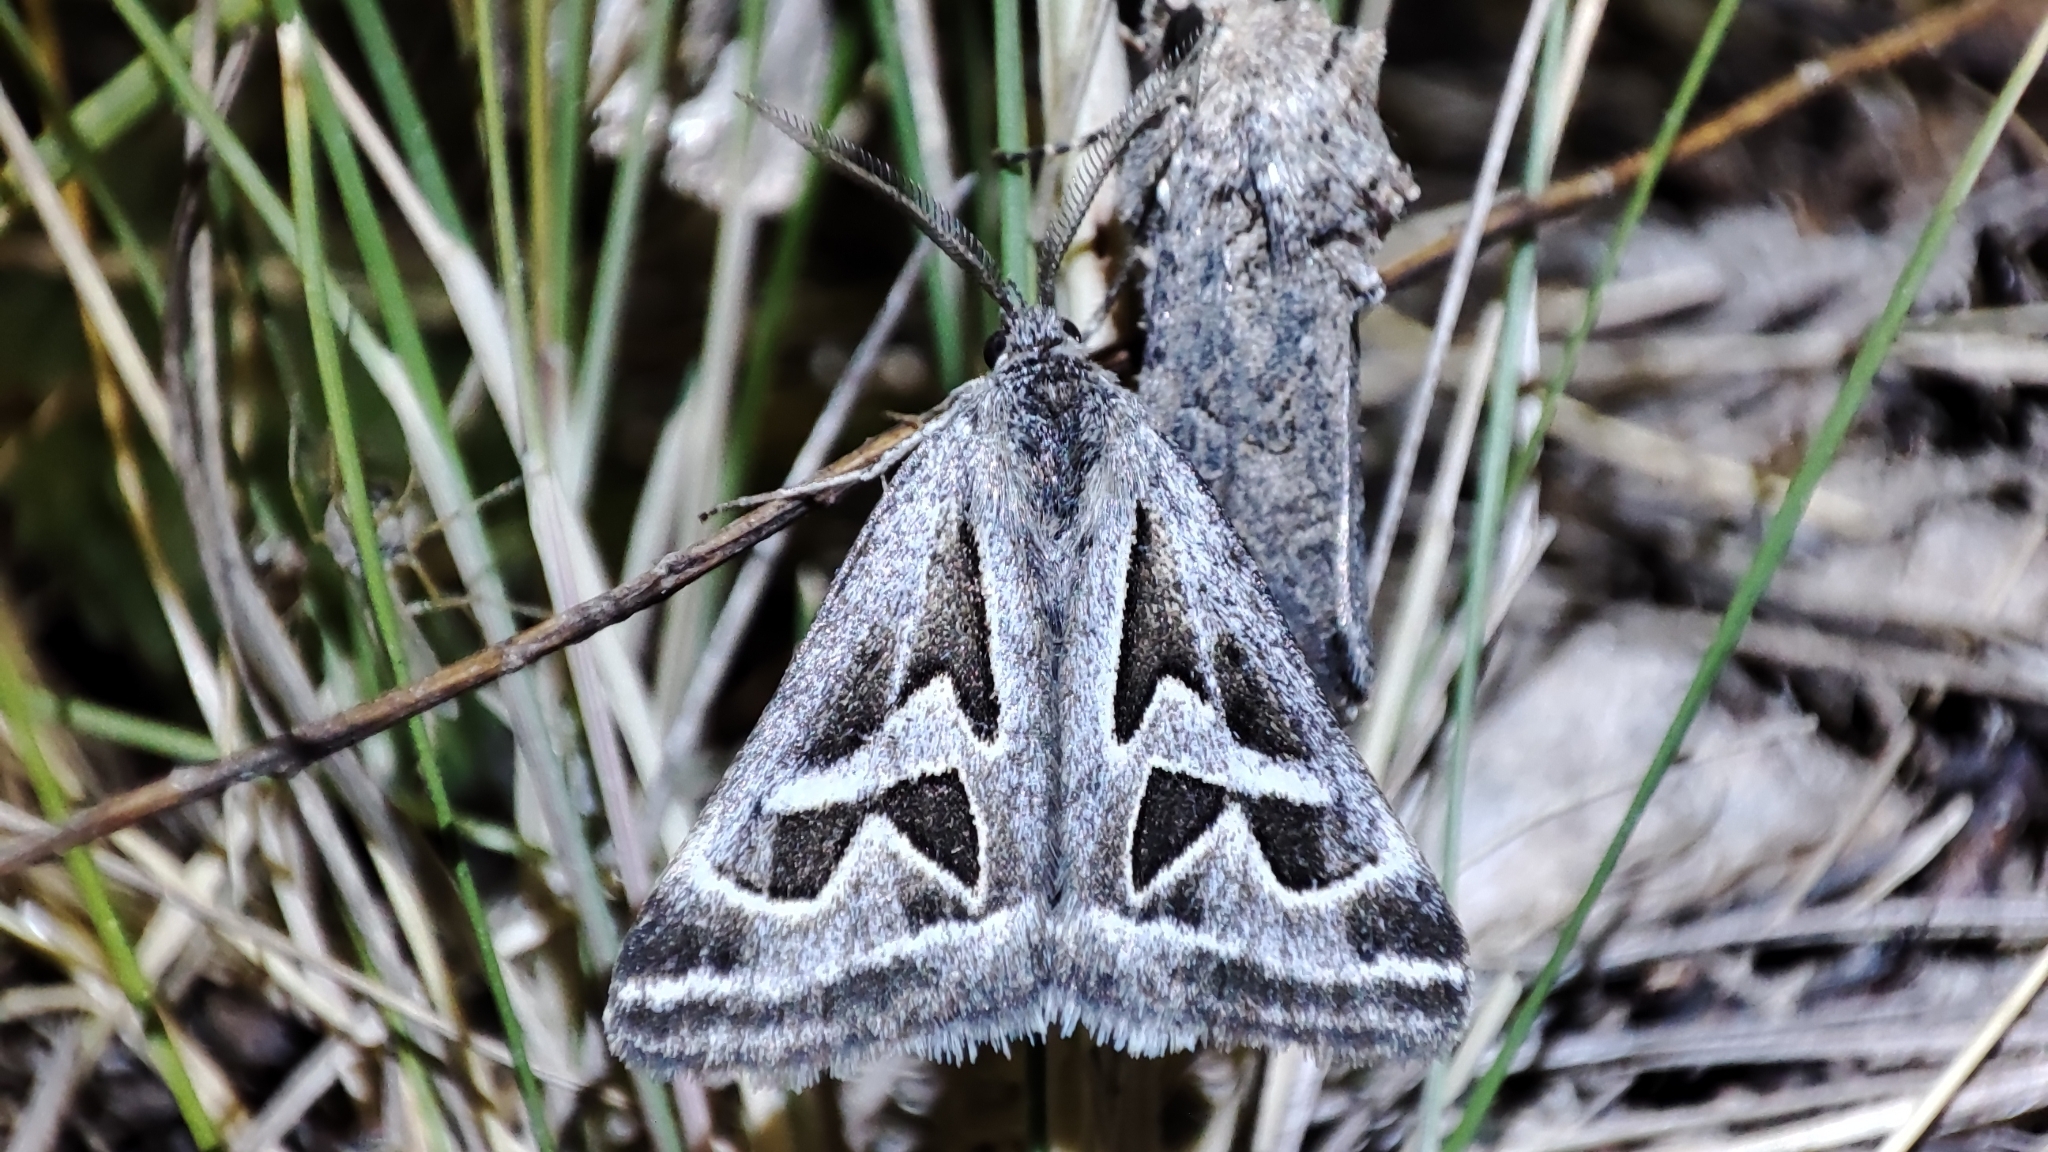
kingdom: Animalia
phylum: Arthropoda
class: Insecta
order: Lepidoptera
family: Erebidae
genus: Callistege
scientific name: Callistege
